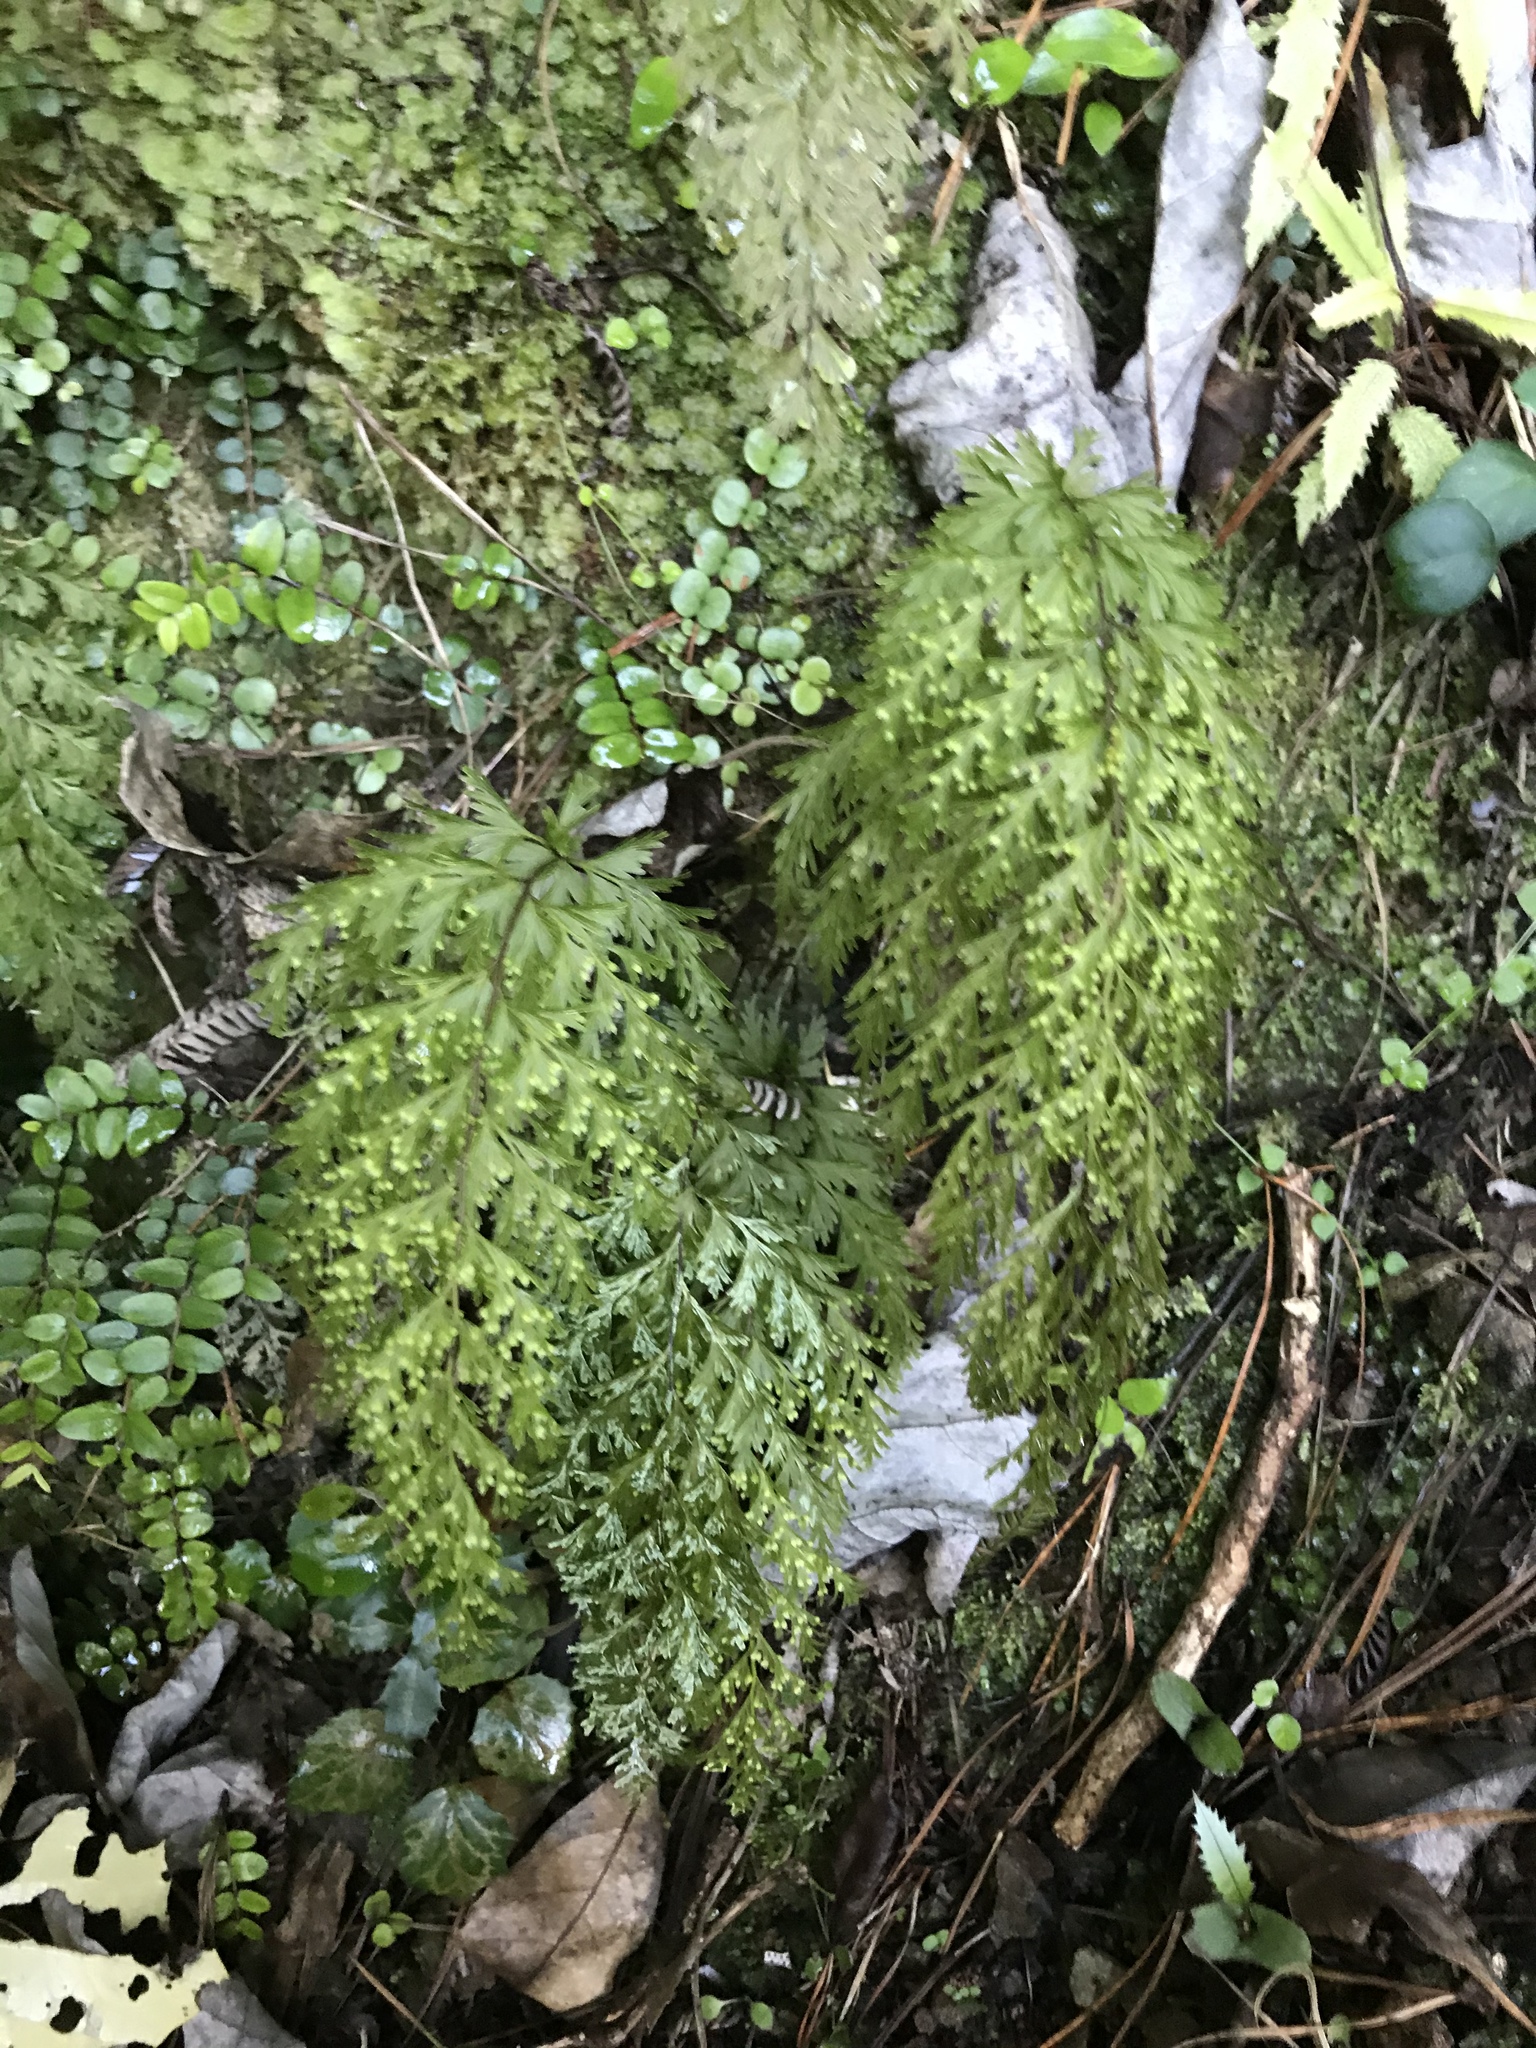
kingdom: Plantae
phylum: Tracheophyta
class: Polypodiopsida
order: Hymenophyllales
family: Hymenophyllaceae
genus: Hymenophyllum
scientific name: Hymenophyllum demissum
